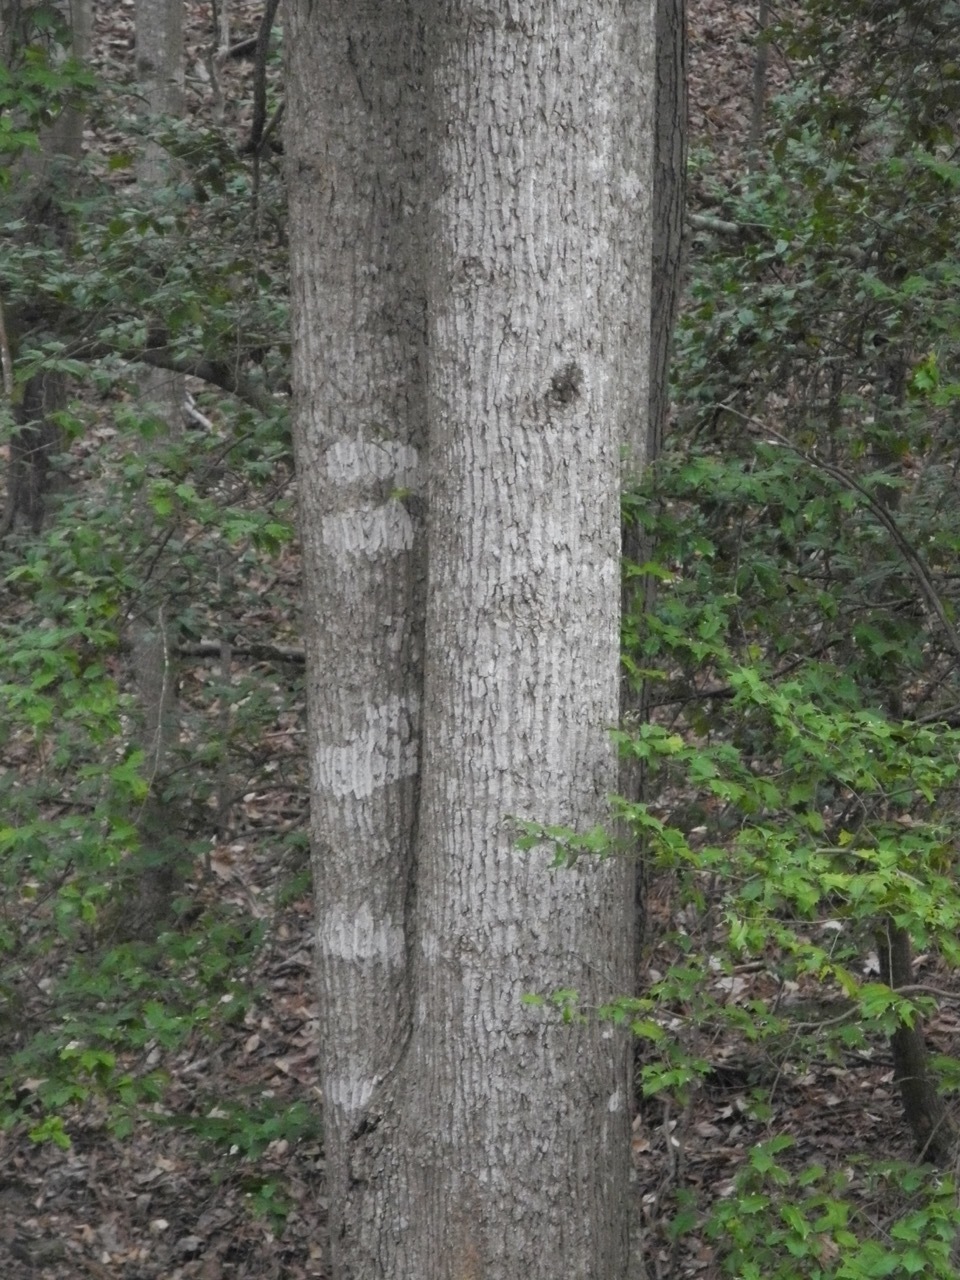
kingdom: Plantae
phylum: Tracheophyta
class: Magnoliopsida
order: Magnoliales
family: Magnoliaceae
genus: Liriodendron
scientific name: Liriodendron tulipifera
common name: Tulip tree
